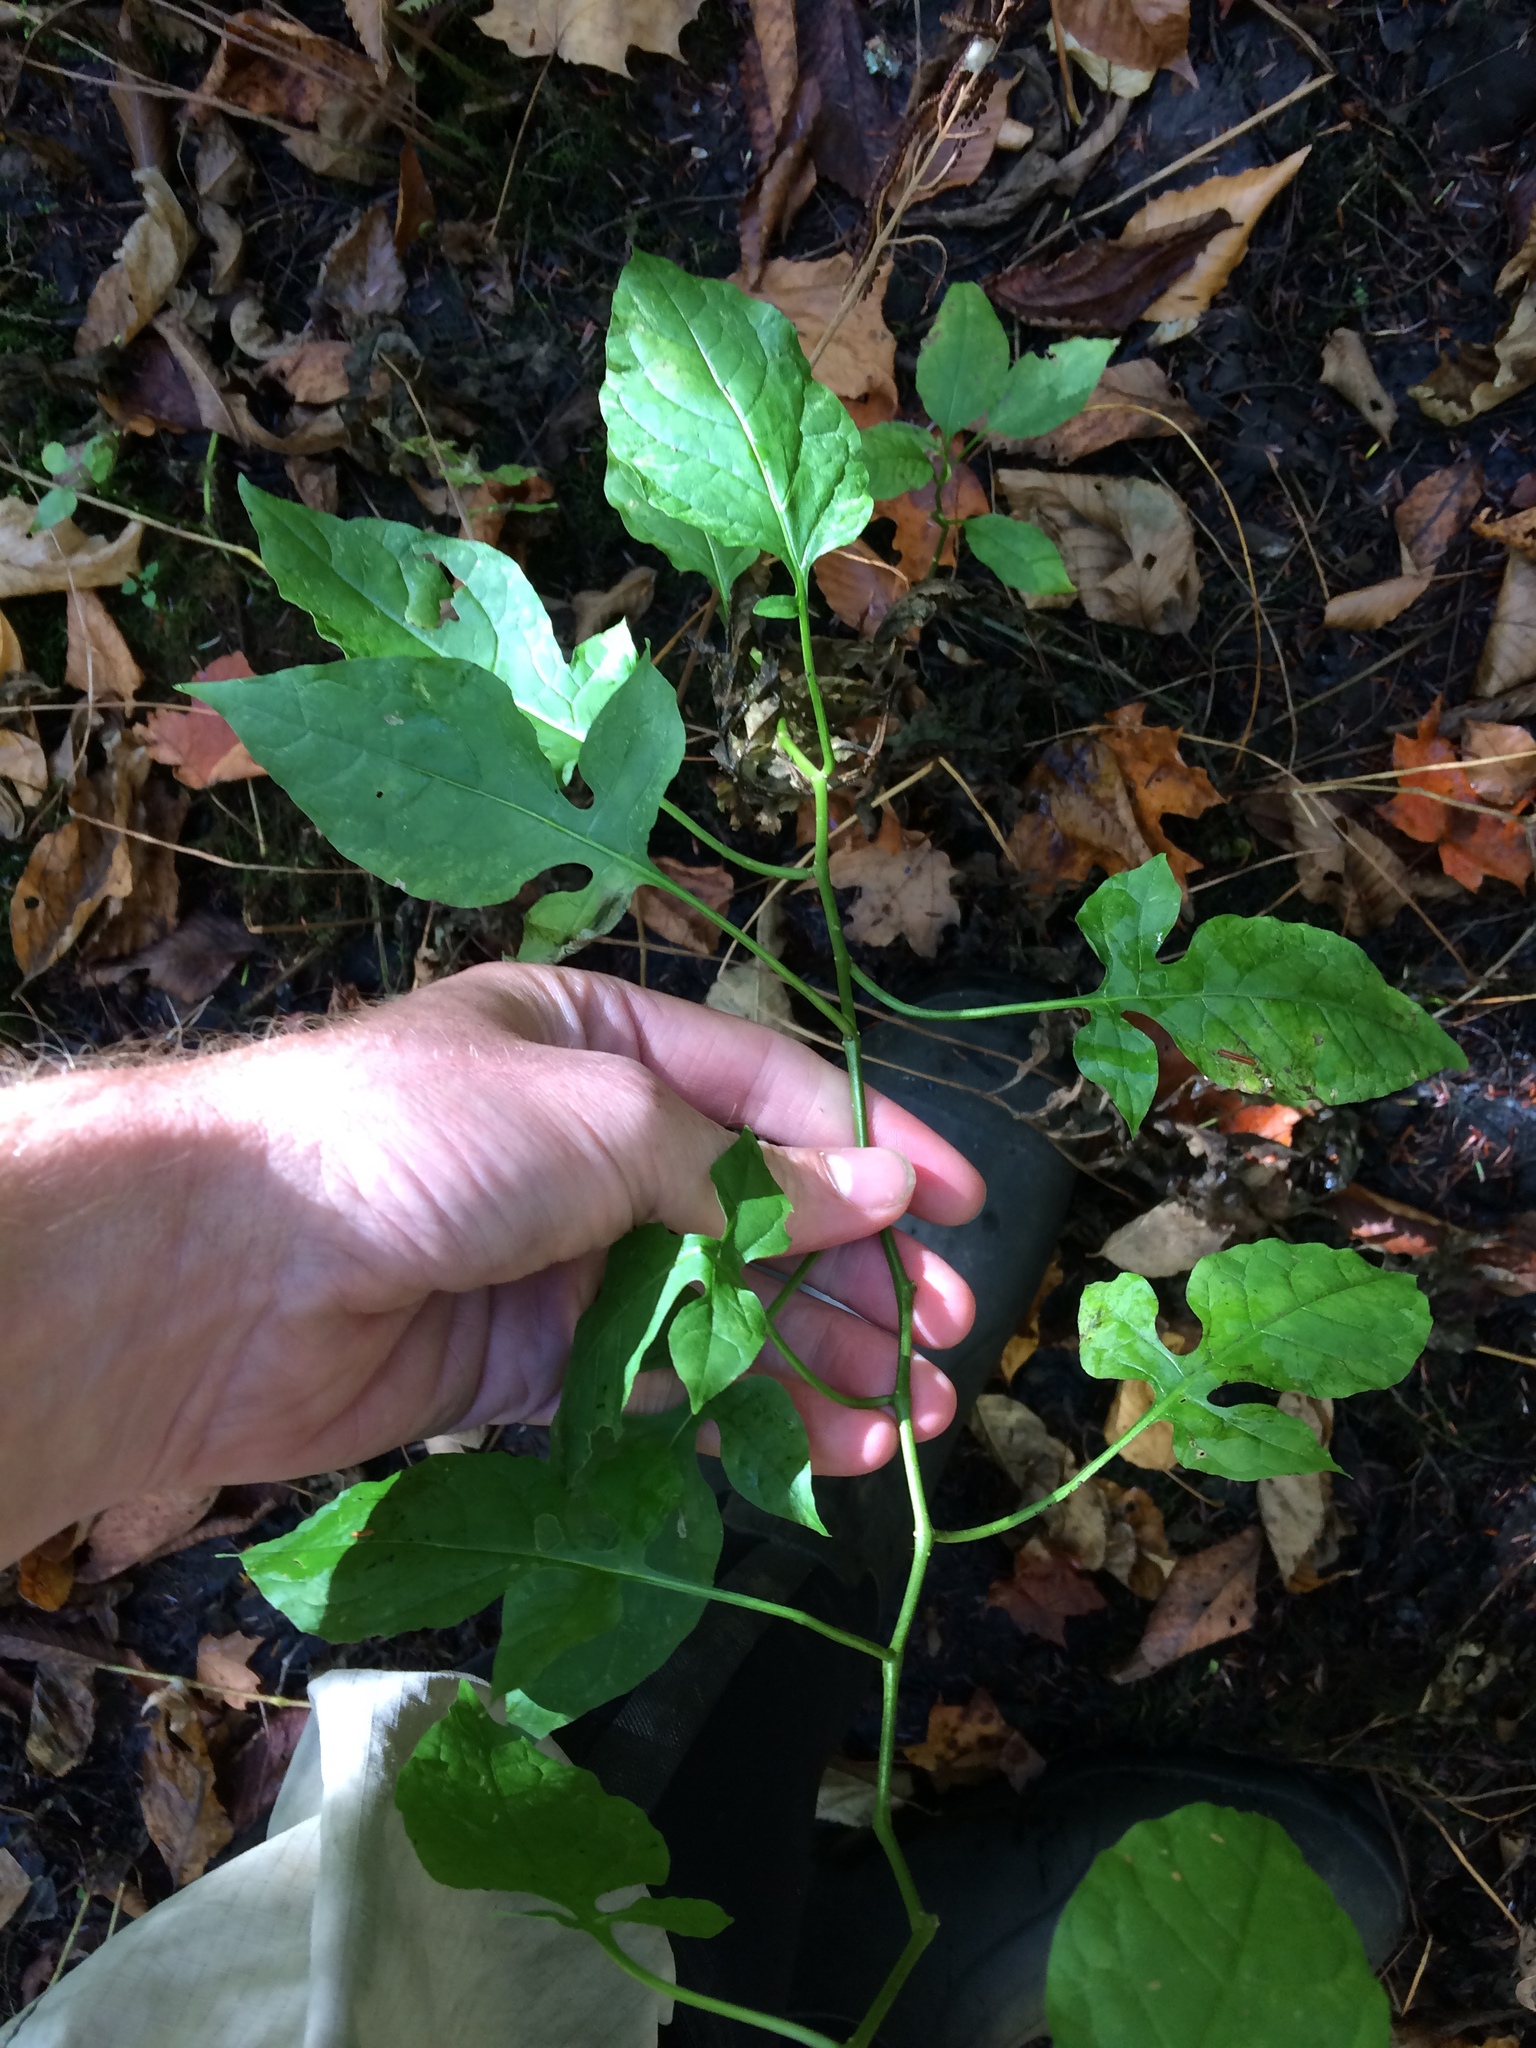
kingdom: Plantae
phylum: Tracheophyta
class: Magnoliopsida
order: Solanales
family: Solanaceae
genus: Solanum
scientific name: Solanum dulcamara
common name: Climbing nightshade
